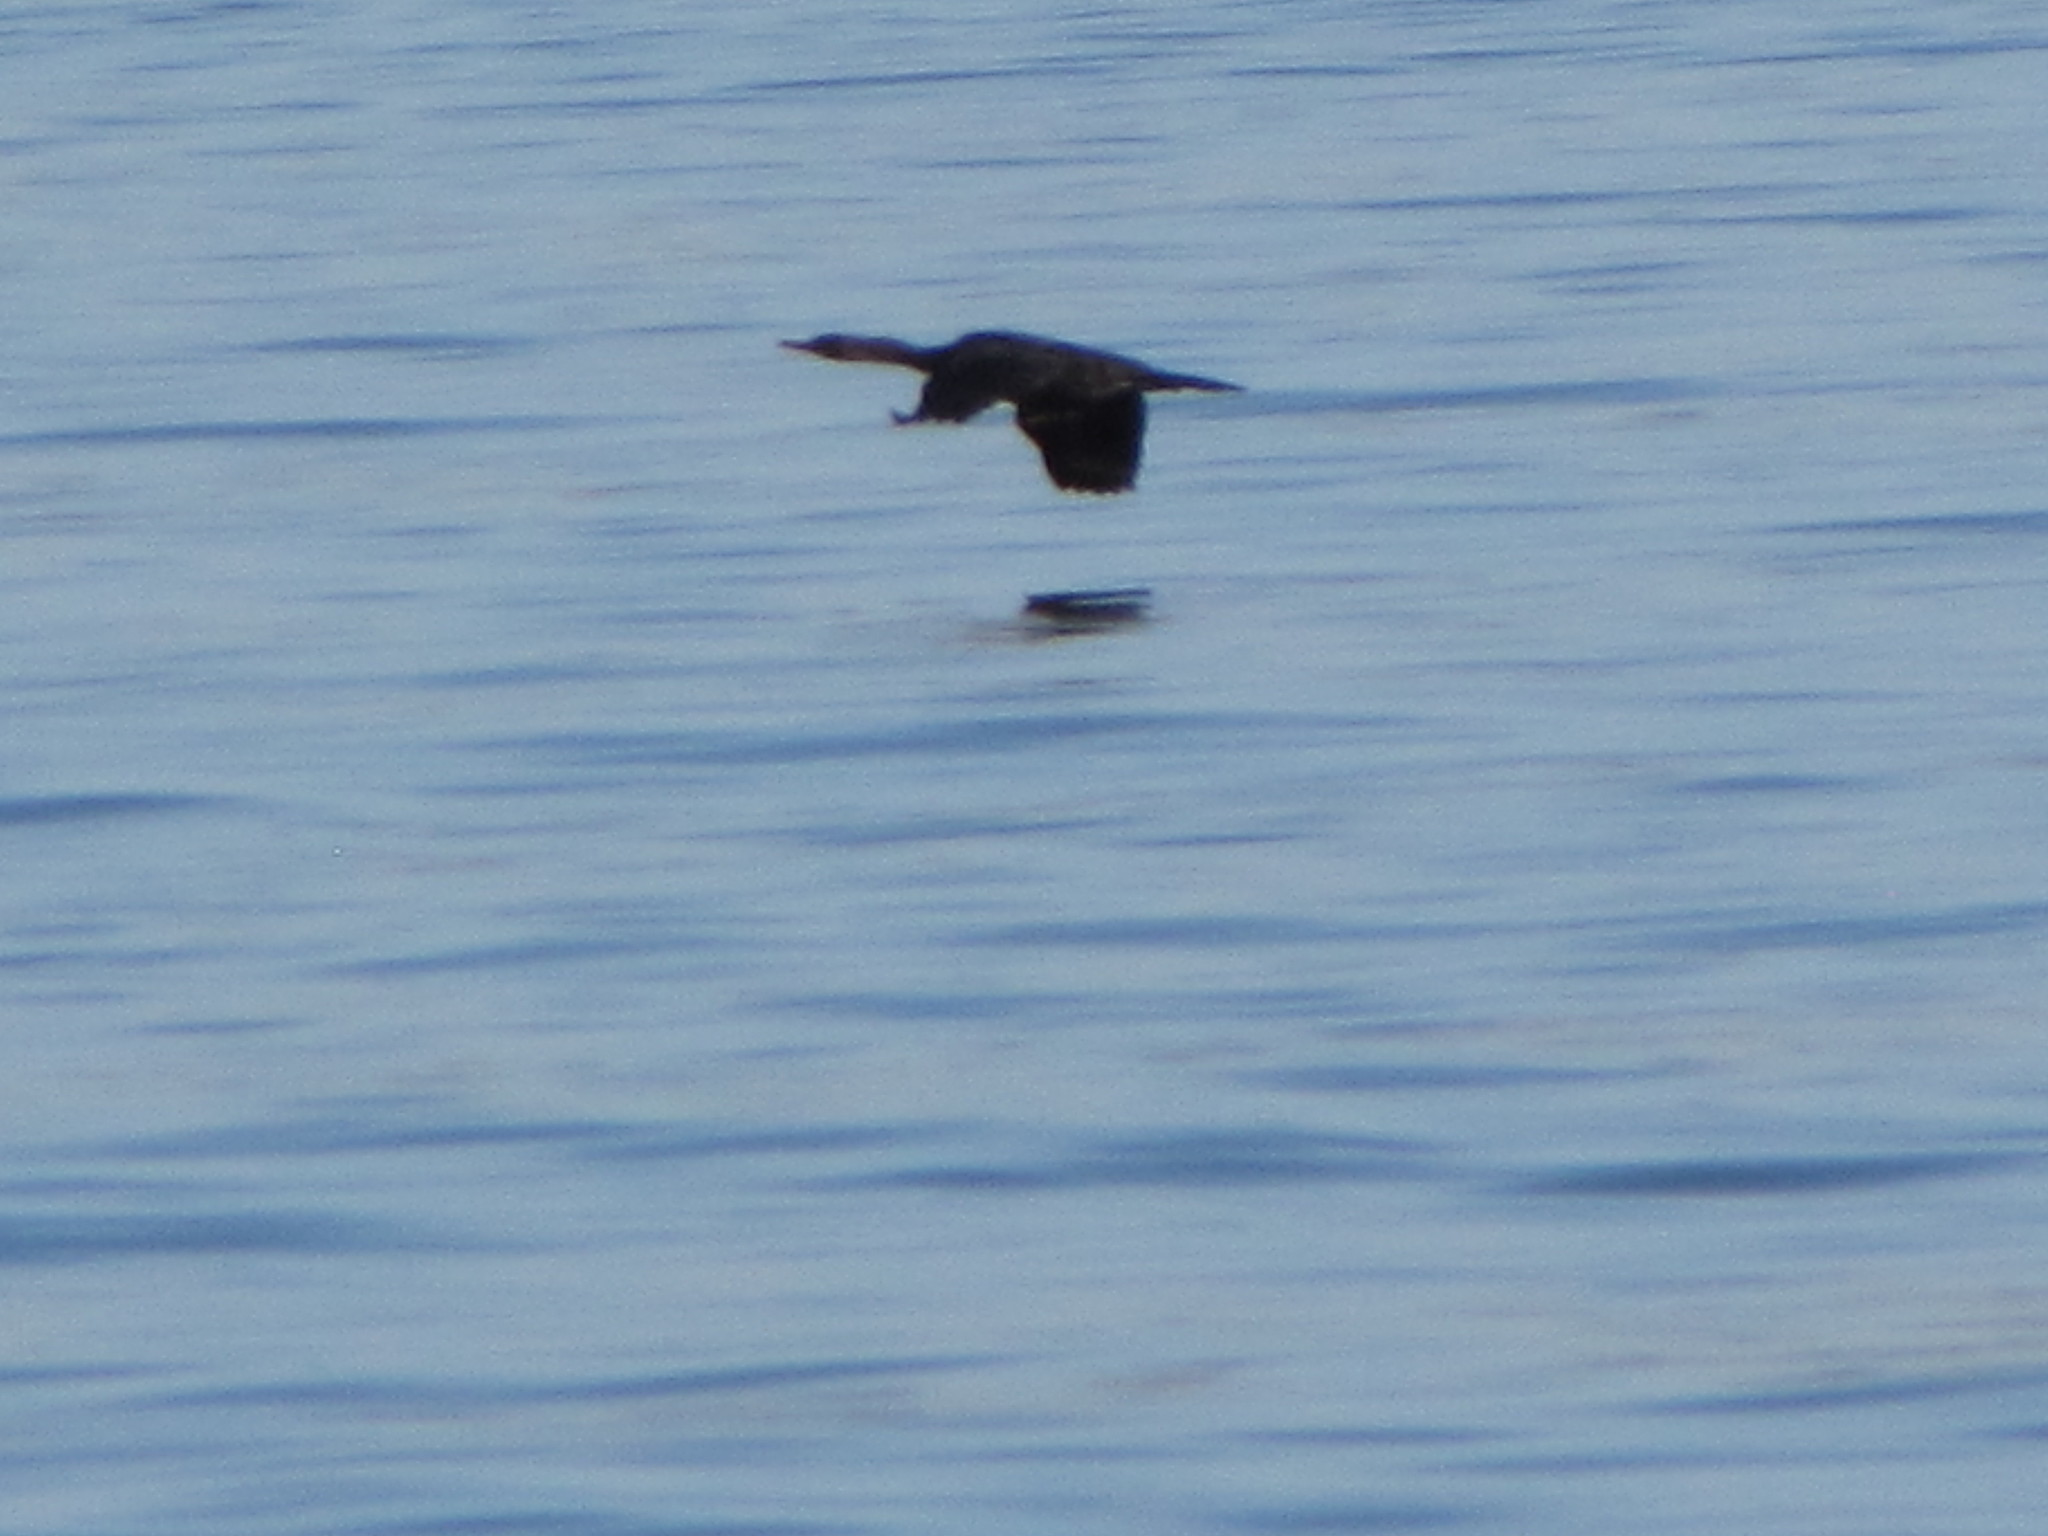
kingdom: Animalia
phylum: Chordata
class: Aves
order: Suliformes
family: Phalacrocoracidae
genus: Phalacrocorax
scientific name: Phalacrocorax pelagicus
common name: Pelagic cormorant
